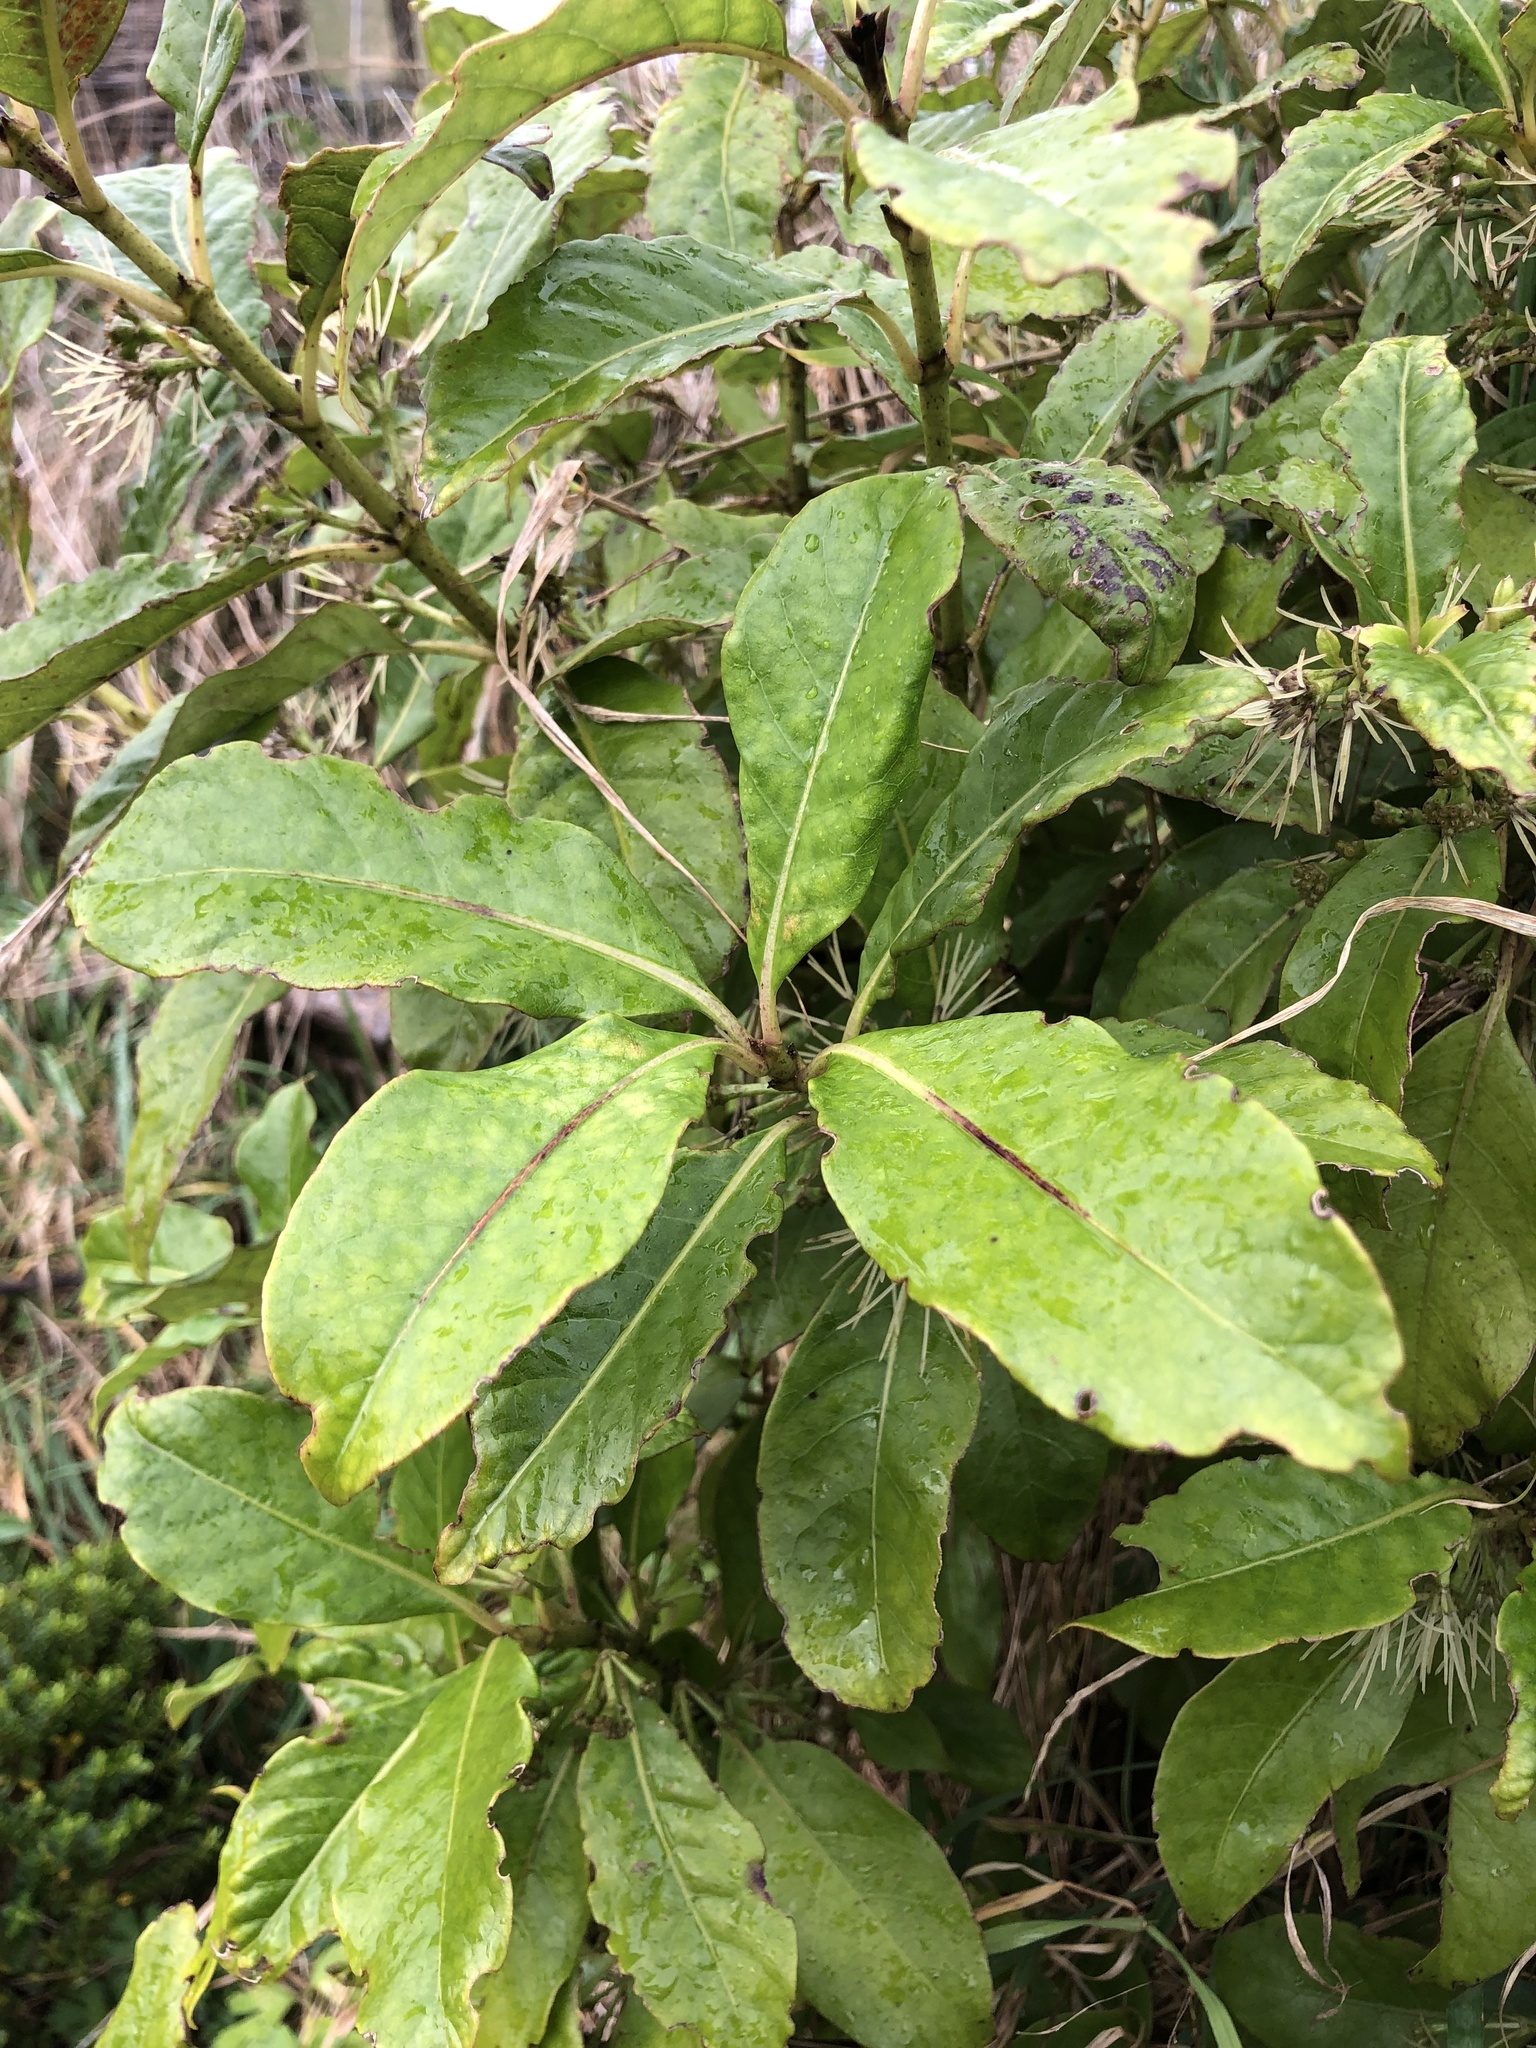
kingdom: Plantae
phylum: Tracheophyta
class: Magnoliopsida
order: Gentianales
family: Rubiaceae
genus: Coprosma
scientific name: Coprosma autumnalis
